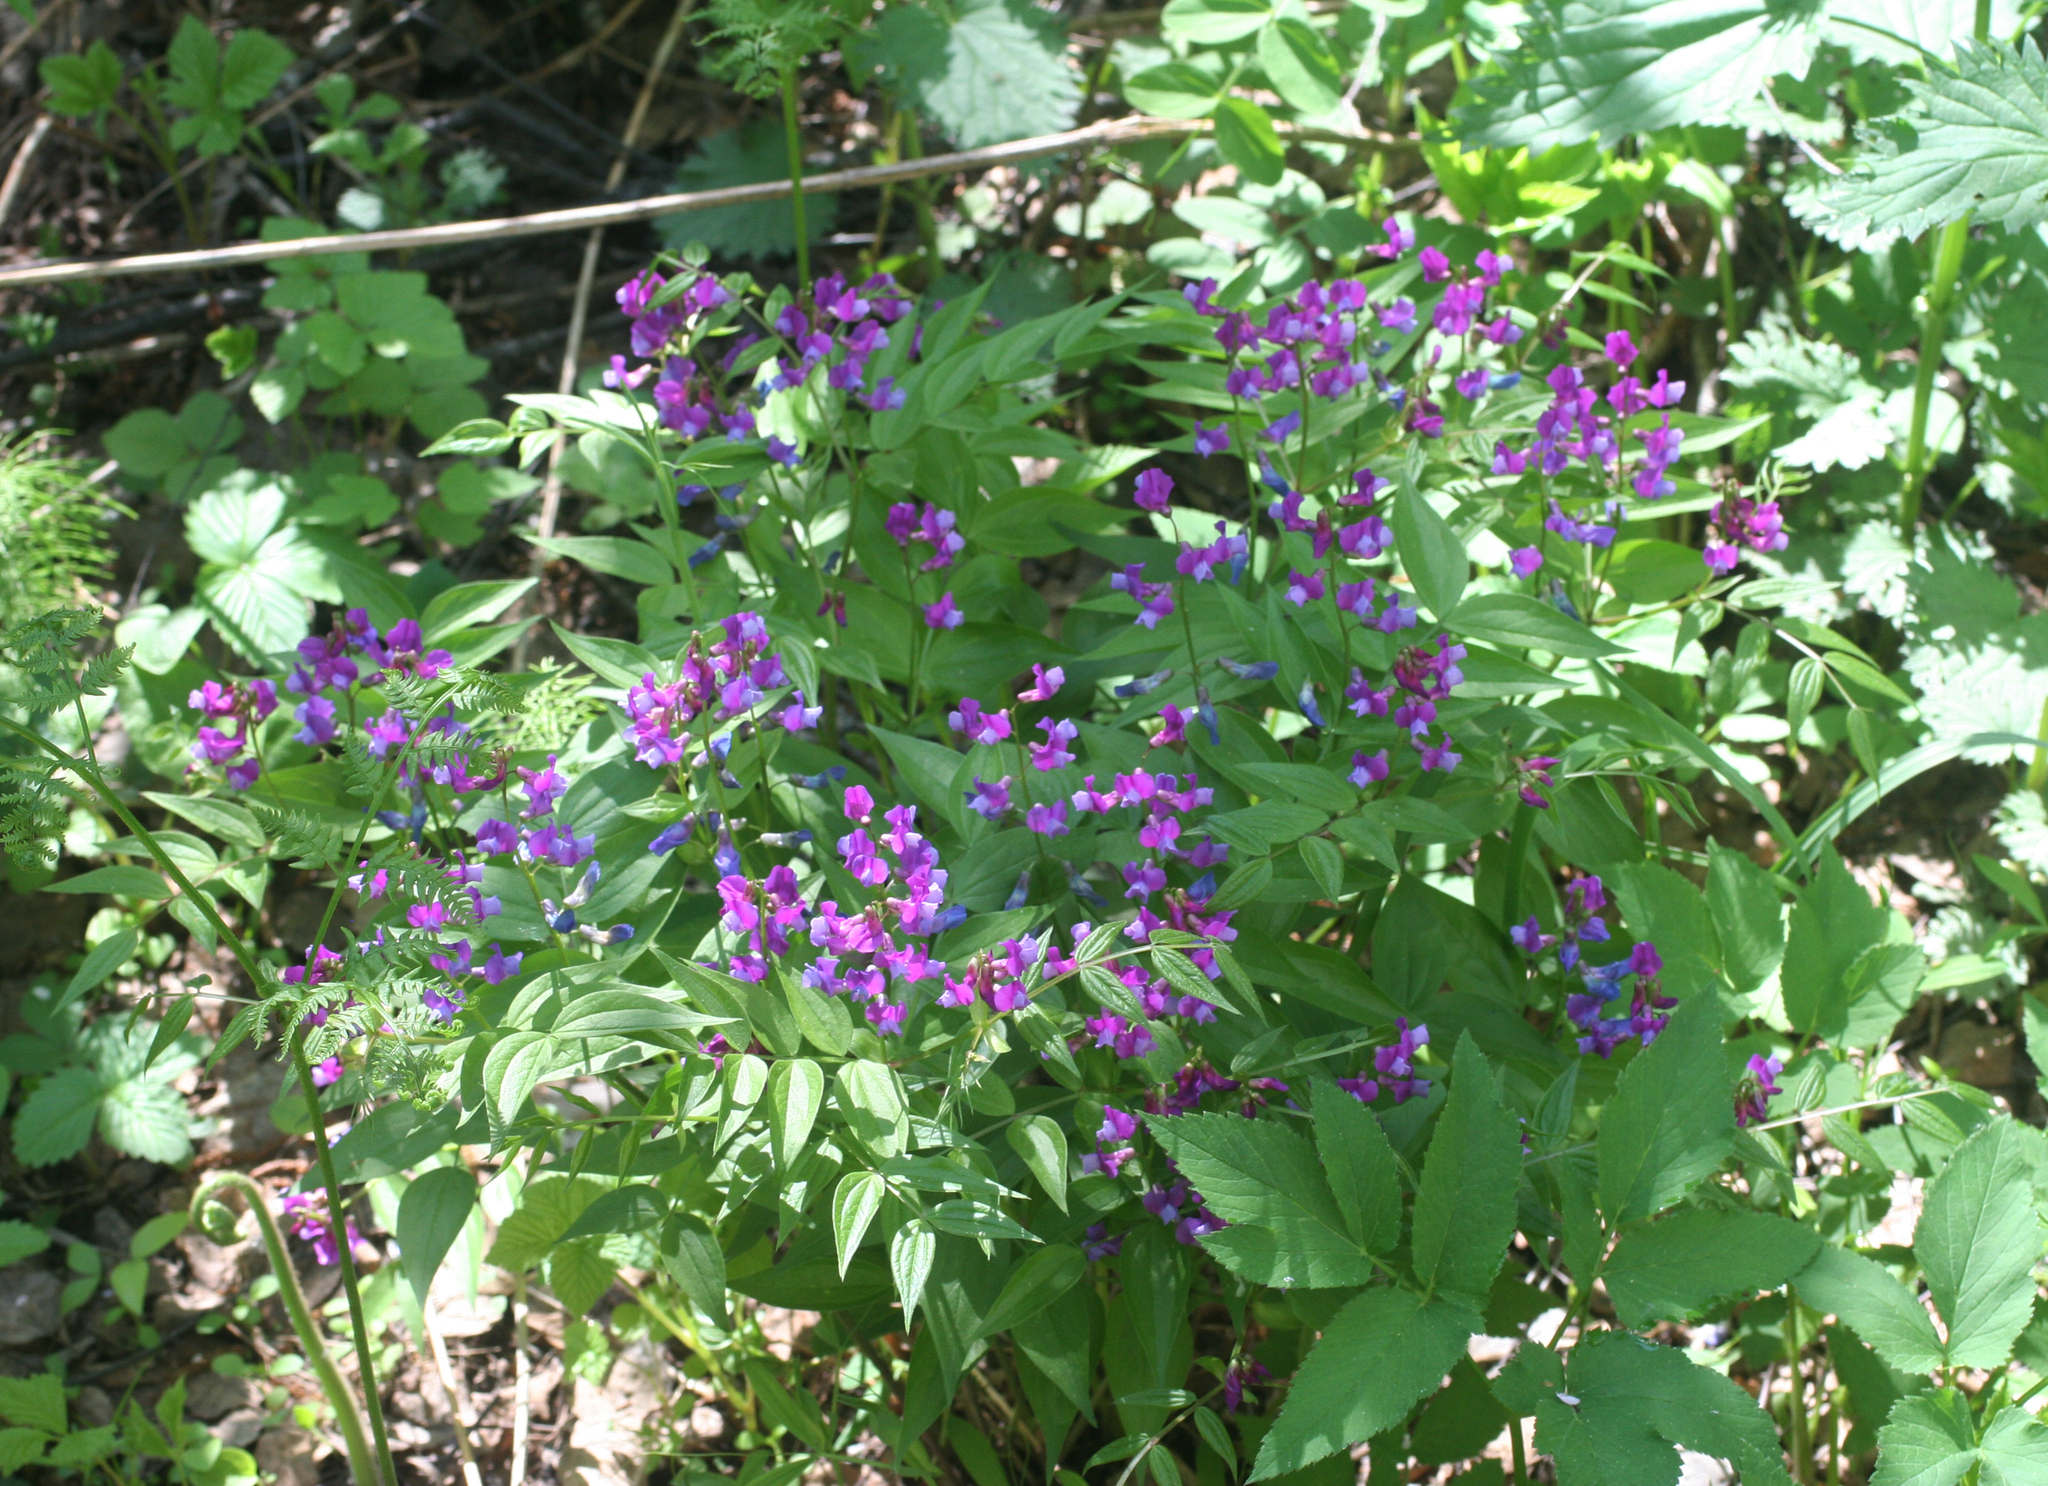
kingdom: Plantae
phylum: Tracheophyta
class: Magnoliopsida
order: Fabales
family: Fabaceae
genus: Lathyrus
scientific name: Lathyrus vernus
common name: Spring pea
